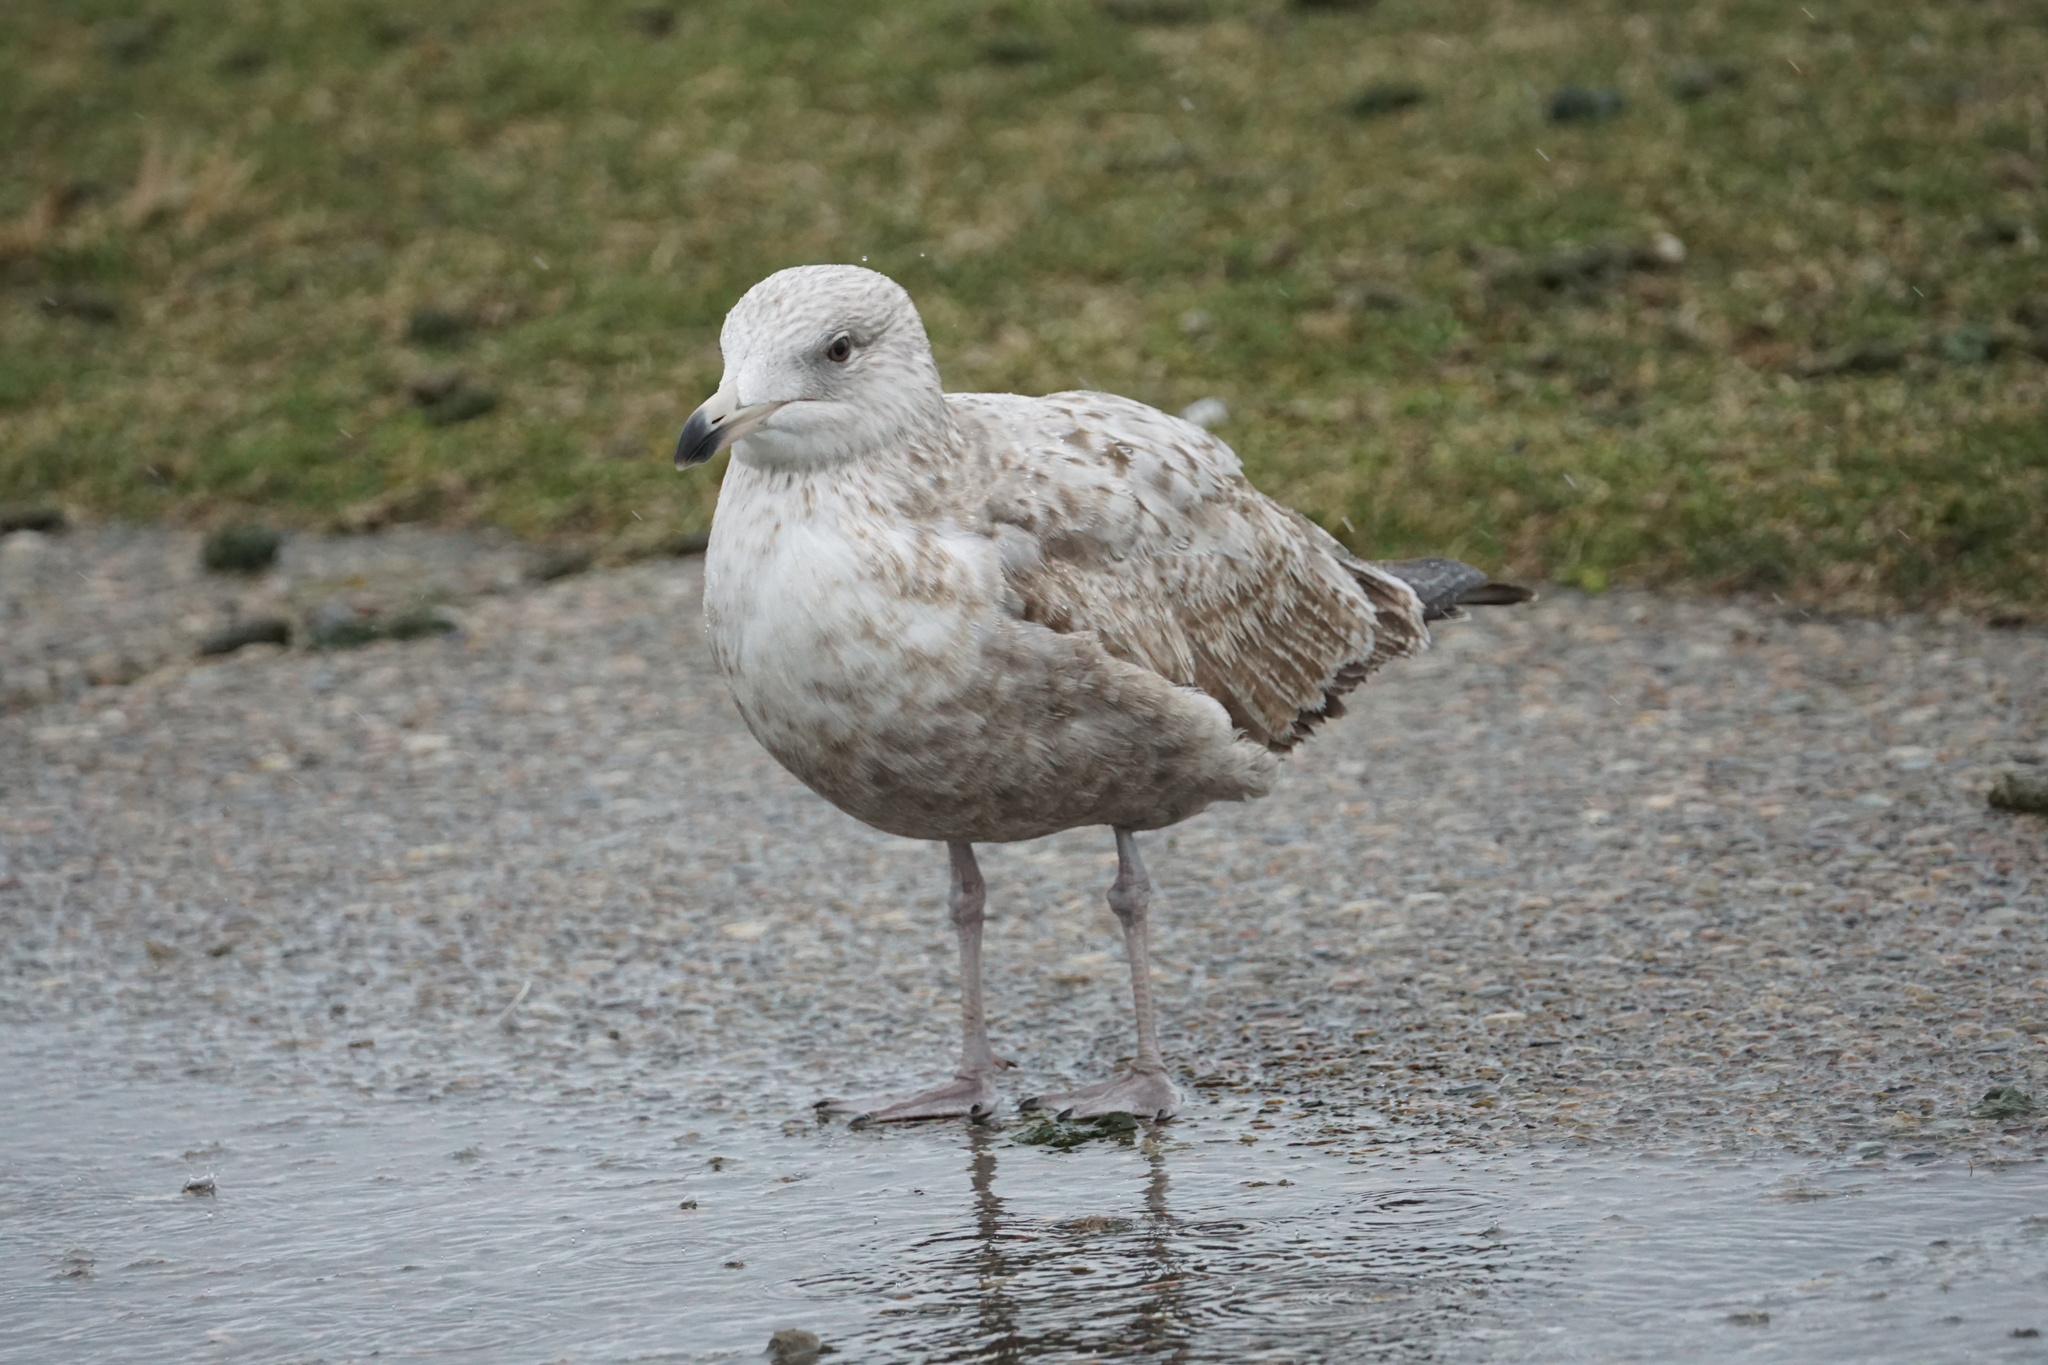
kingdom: Animalia
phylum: Chordata
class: Aves
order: Charadriiformes
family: Laridae
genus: Larus
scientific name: Larus argentatus
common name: Herring gull
